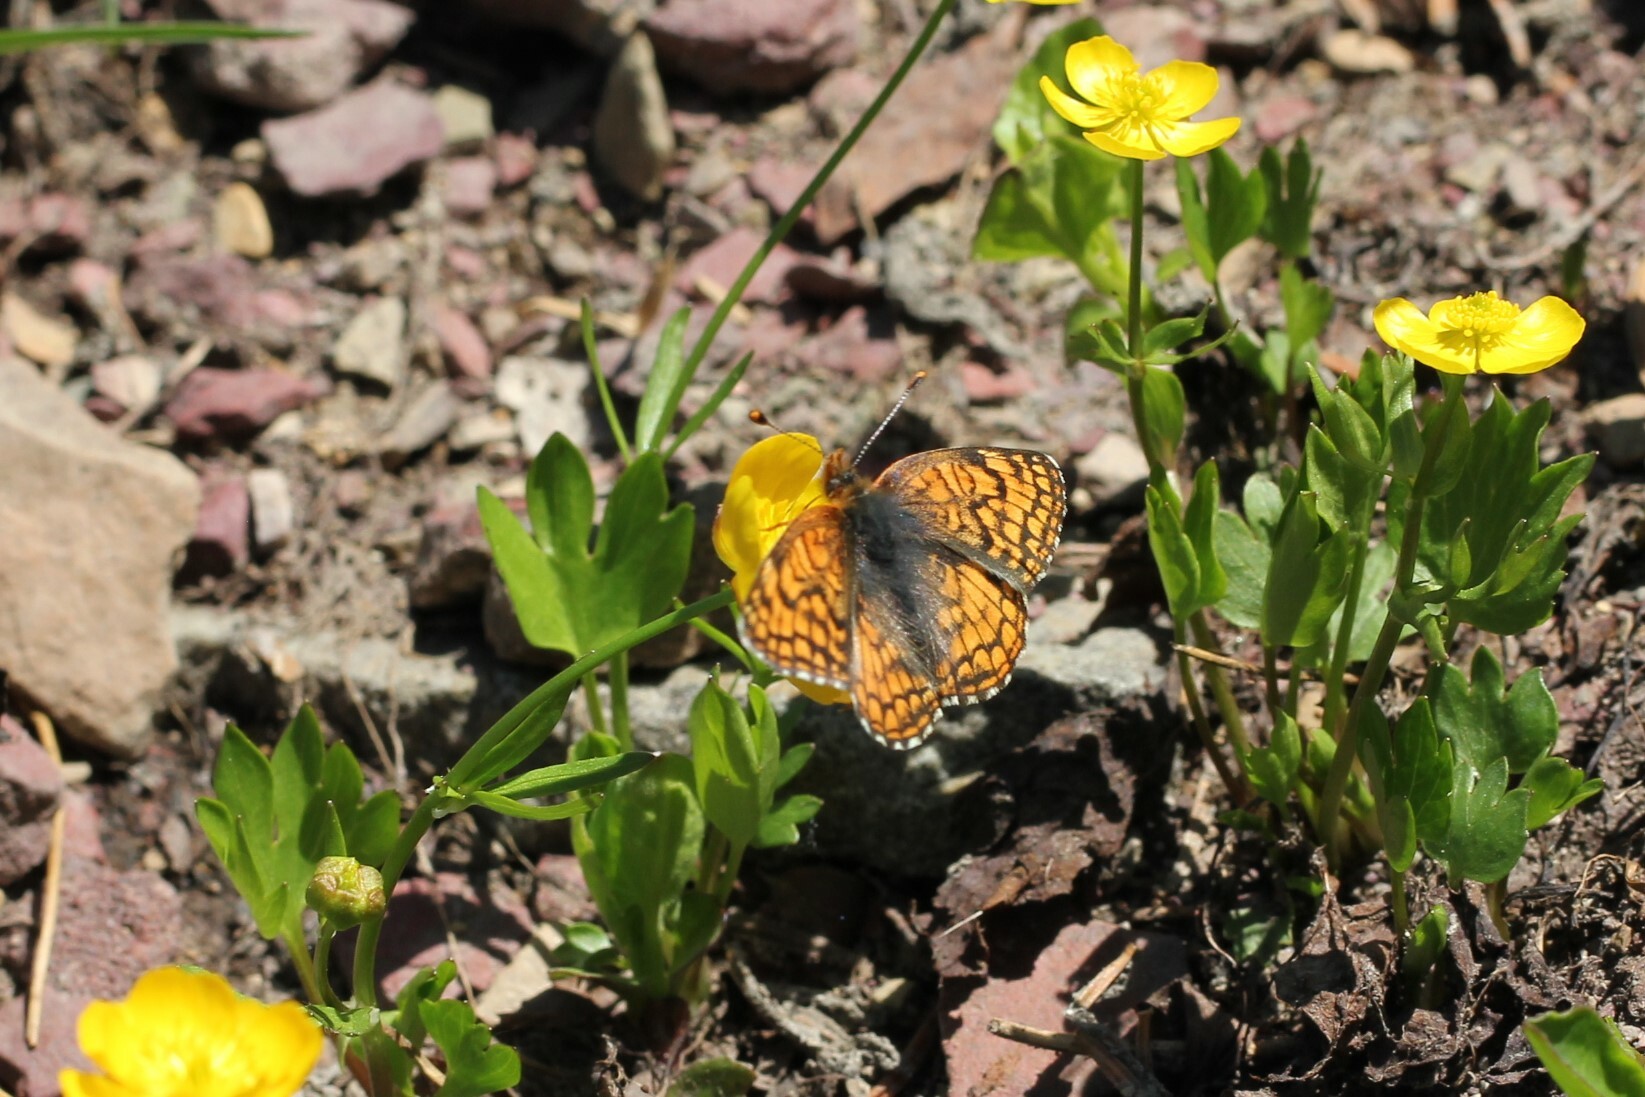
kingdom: Animalia
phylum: Arthropoda
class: Insecta
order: Lepidoptera
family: Nymphalidae
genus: Chlosyne
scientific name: Chlosyne damoetas
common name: Rockslide checkerspot
